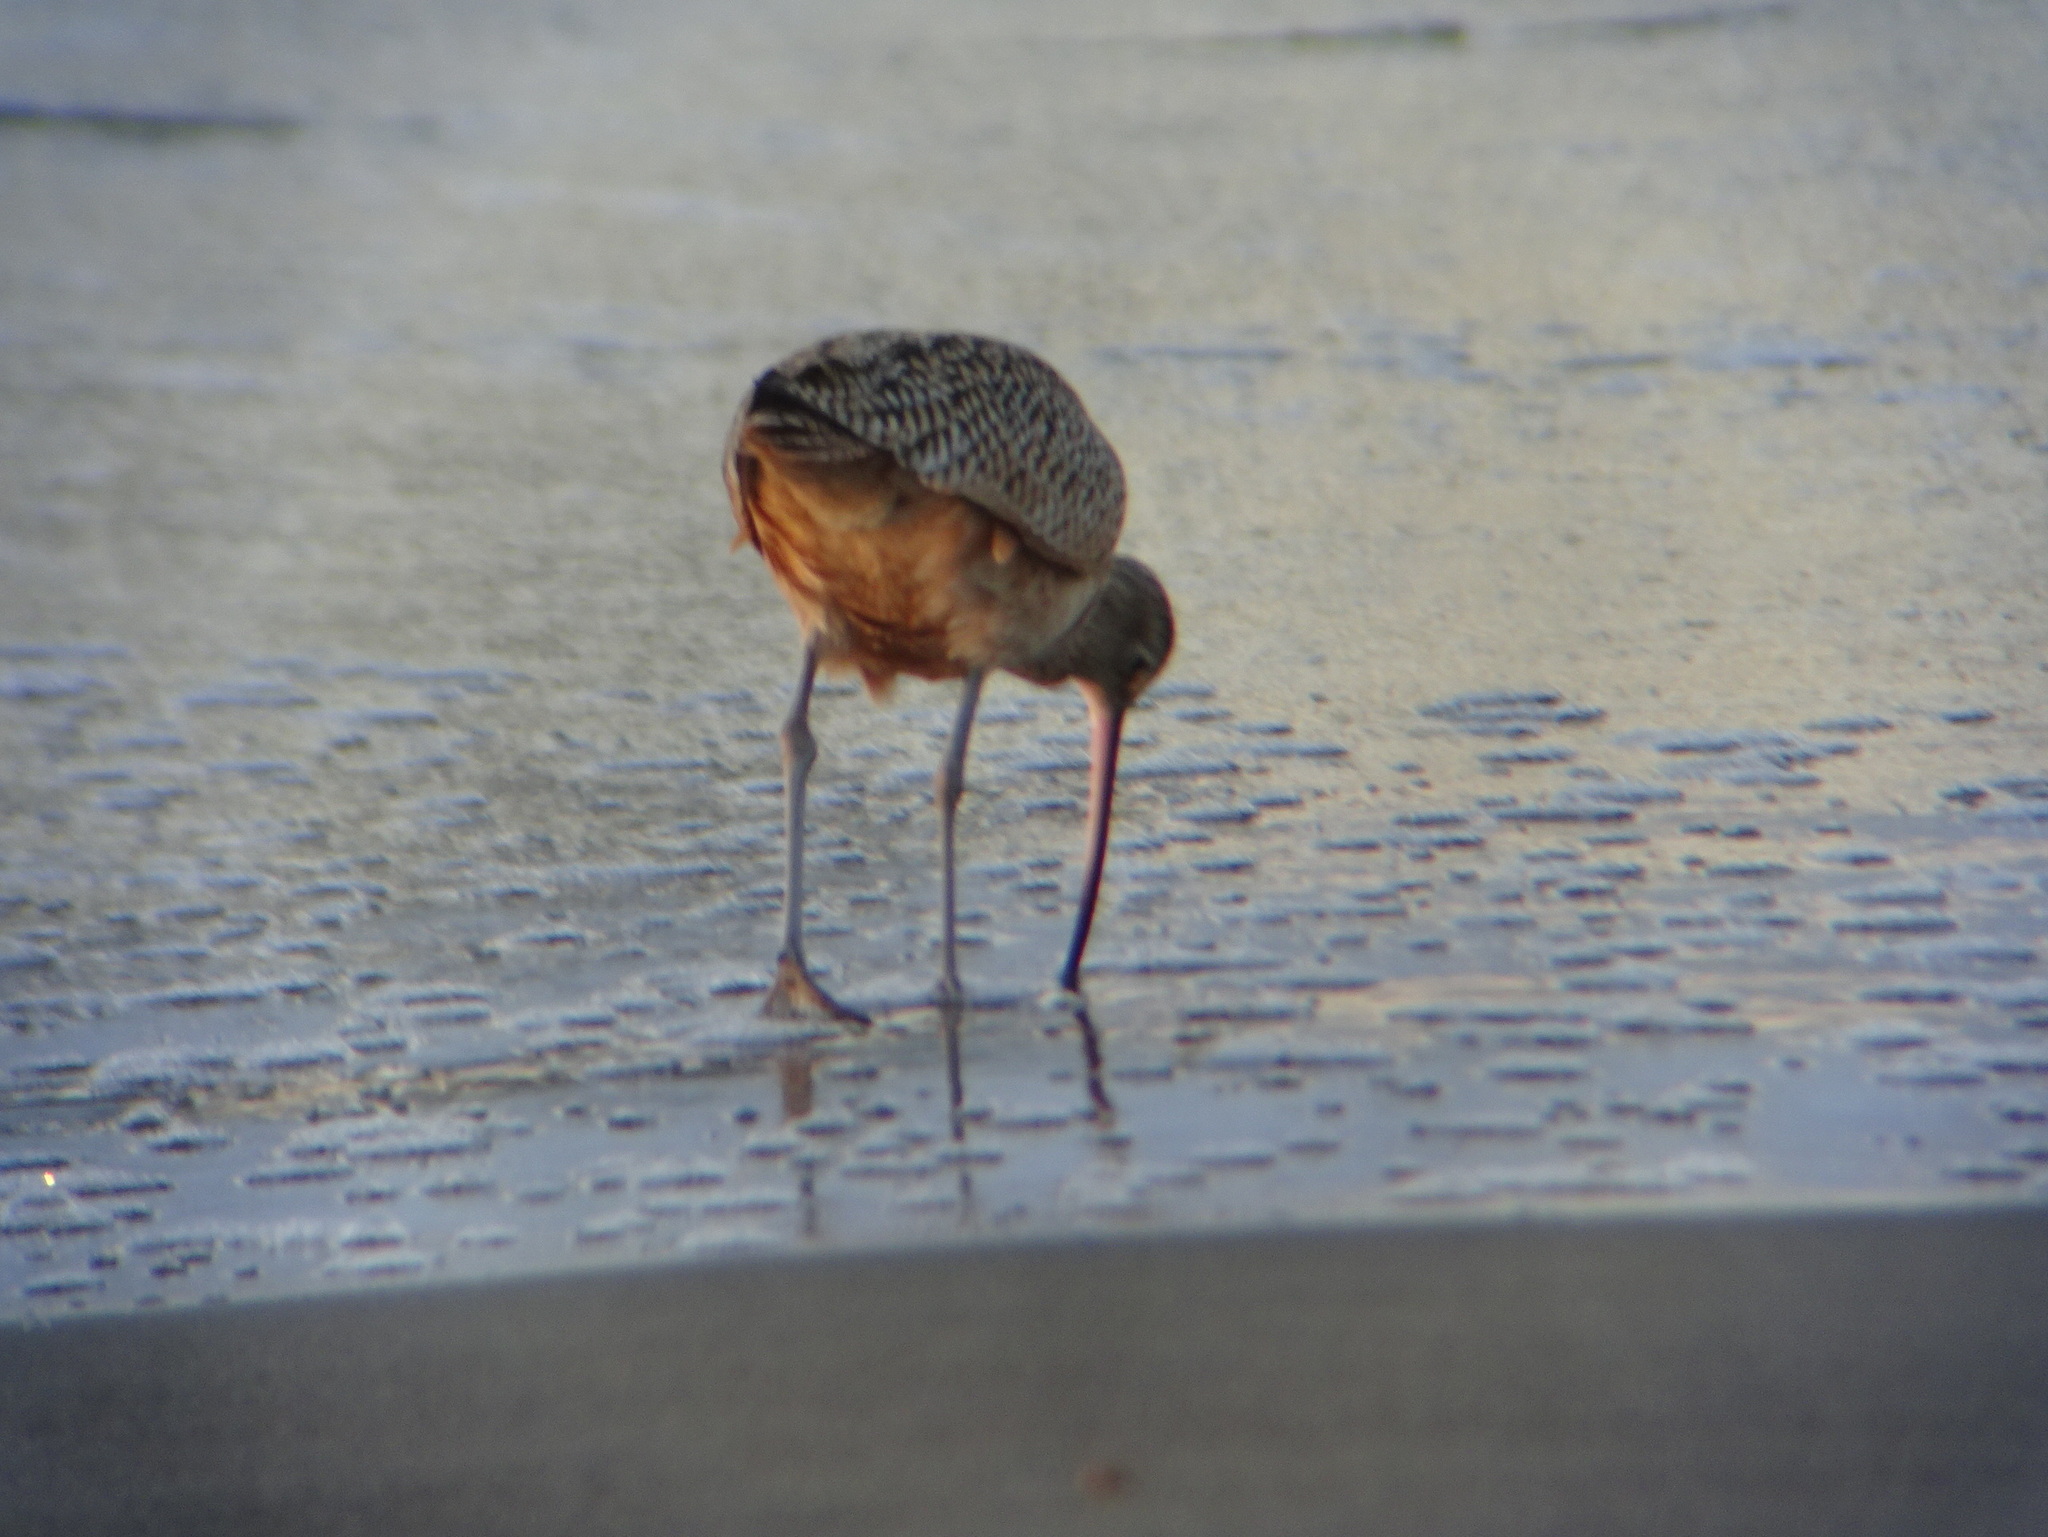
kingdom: Animalia
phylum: Chordata
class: Aves
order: Charadriiformes
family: Scolopacidae
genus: Numenius
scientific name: Numenius americanus
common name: Long-billed curlew
